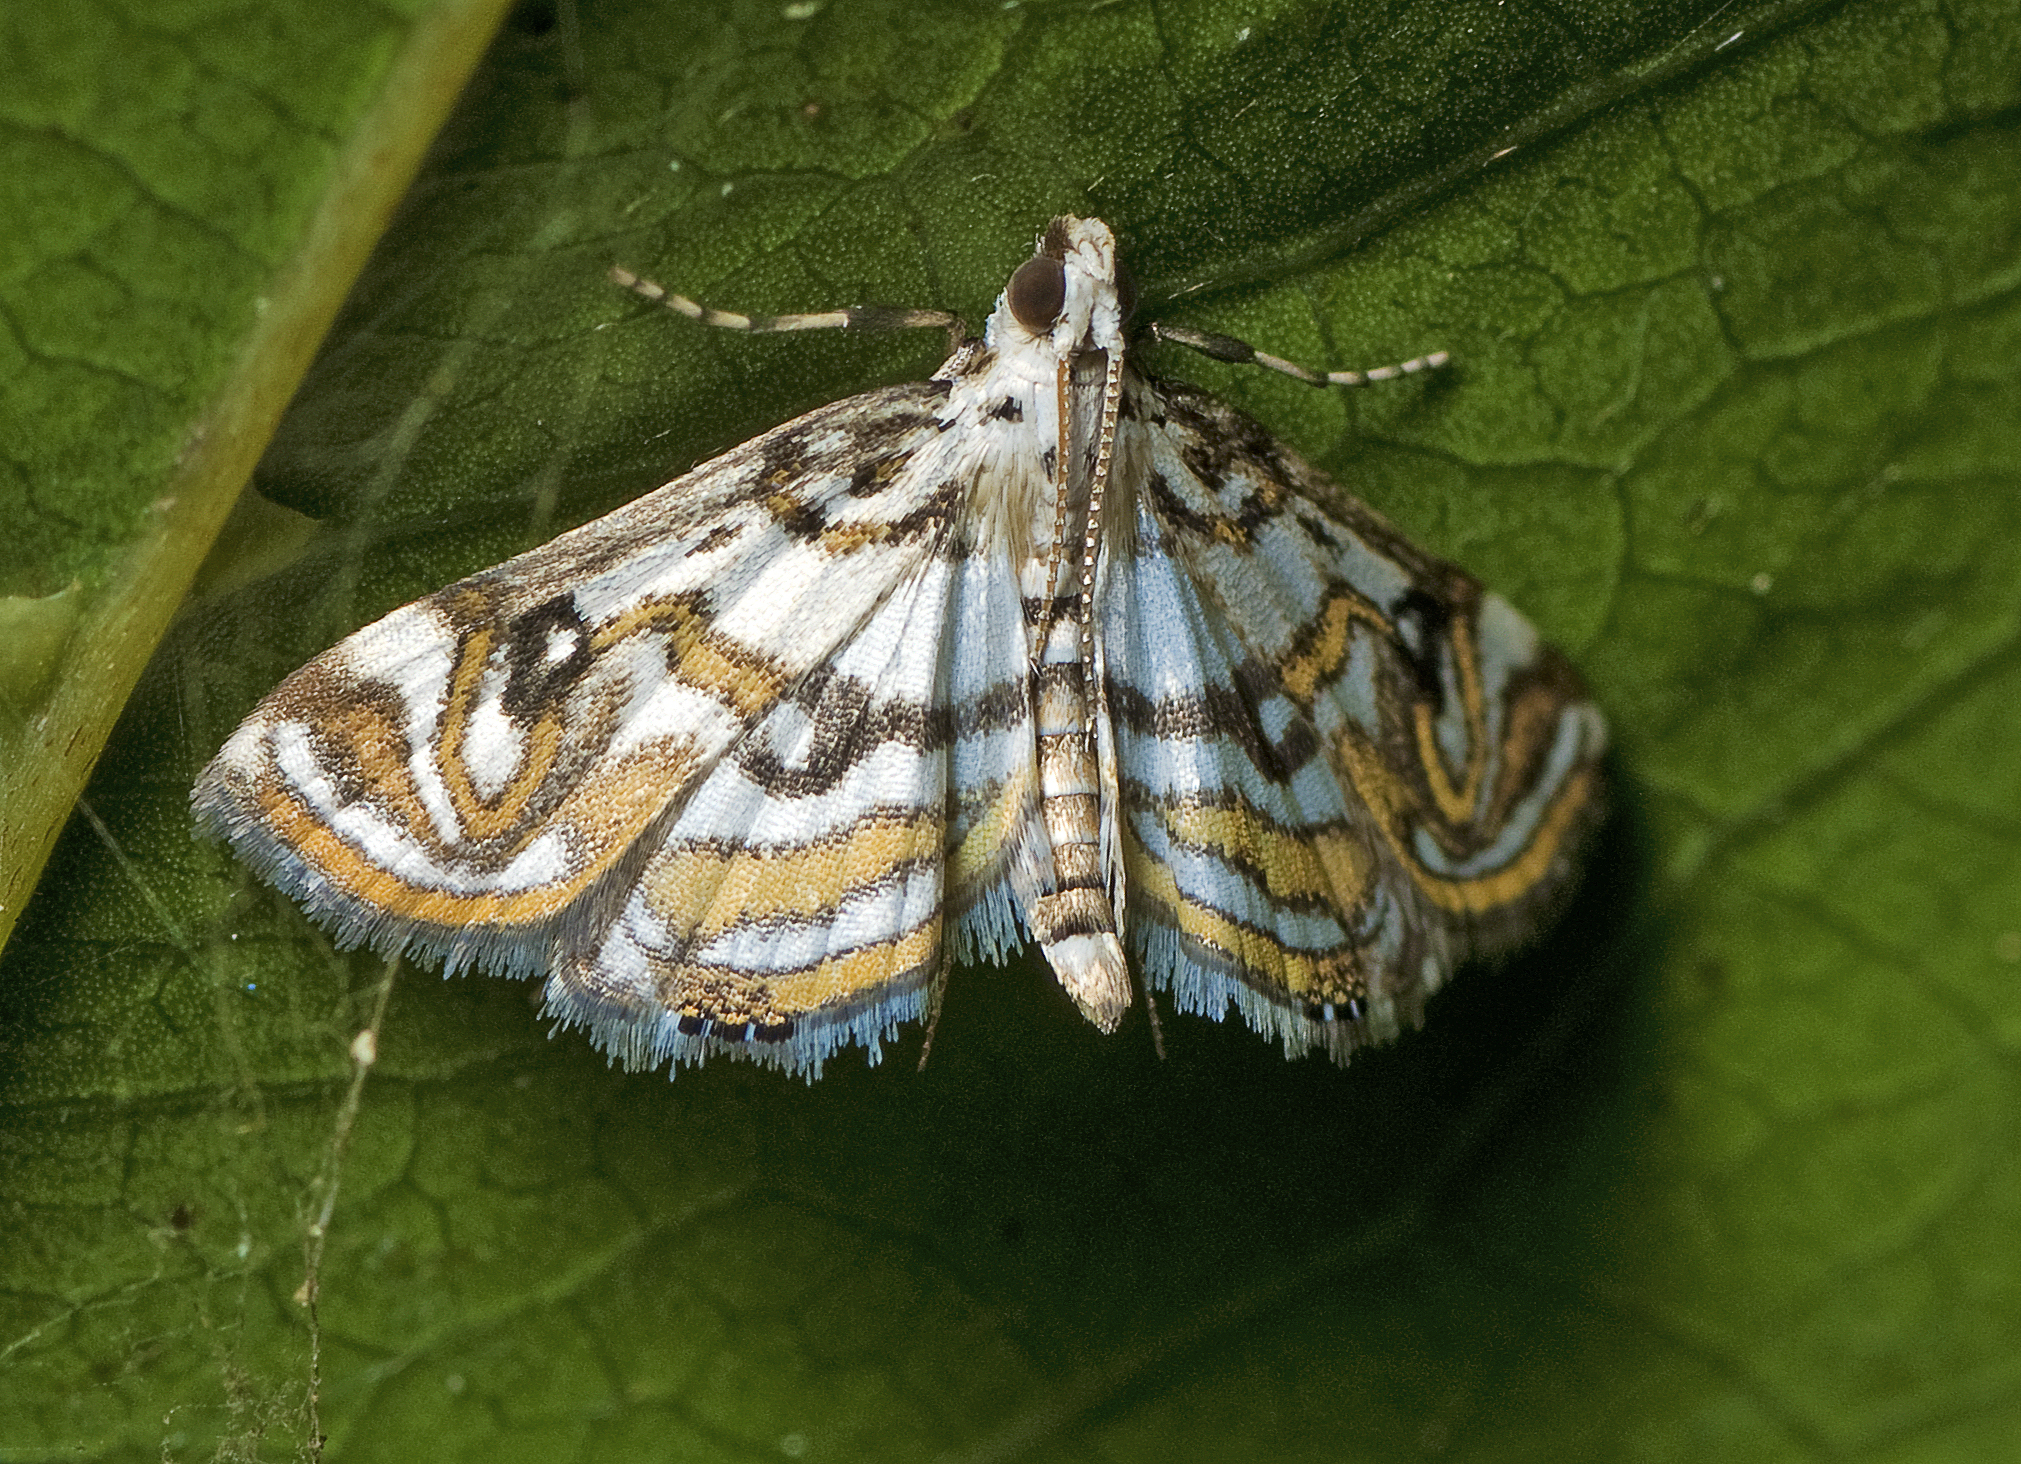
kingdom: Animalia
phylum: Arthropoda
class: Insecta
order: Lepidoptera
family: Crambidae
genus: Parapoynx
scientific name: Parapoynx polydectalis
